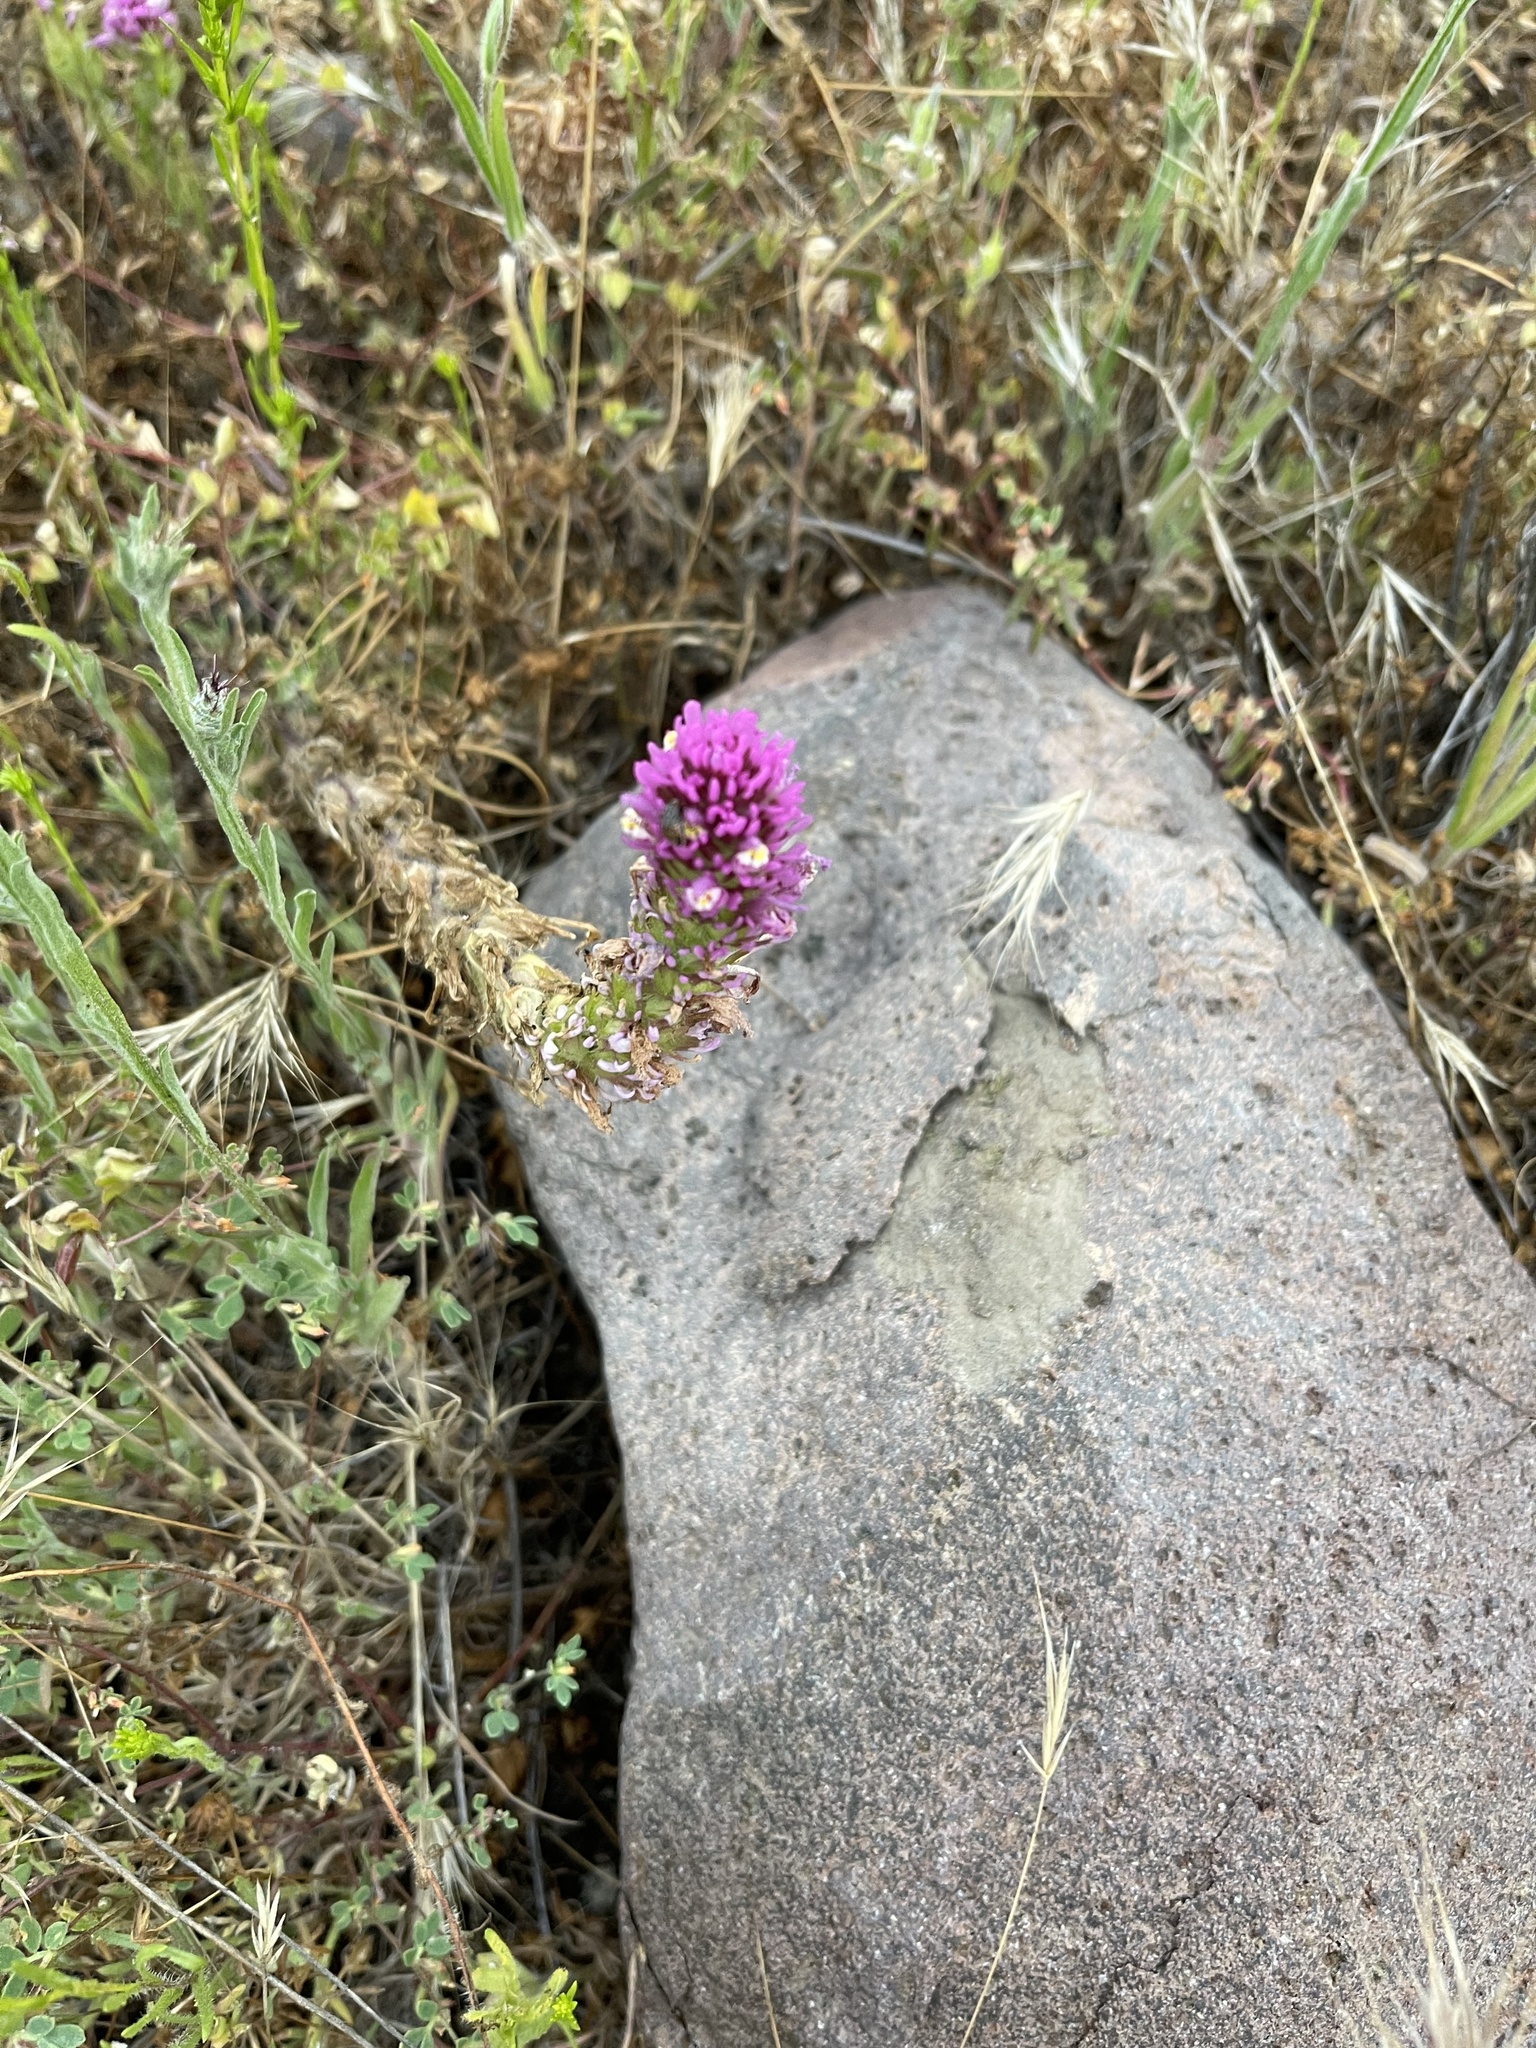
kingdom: Plantae
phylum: Tracheophyta
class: Magnoliopsida
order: Lamiales
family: Orobanchaceae
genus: Castilleja
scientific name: Castilleja exserta
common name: Purple owl-clover
